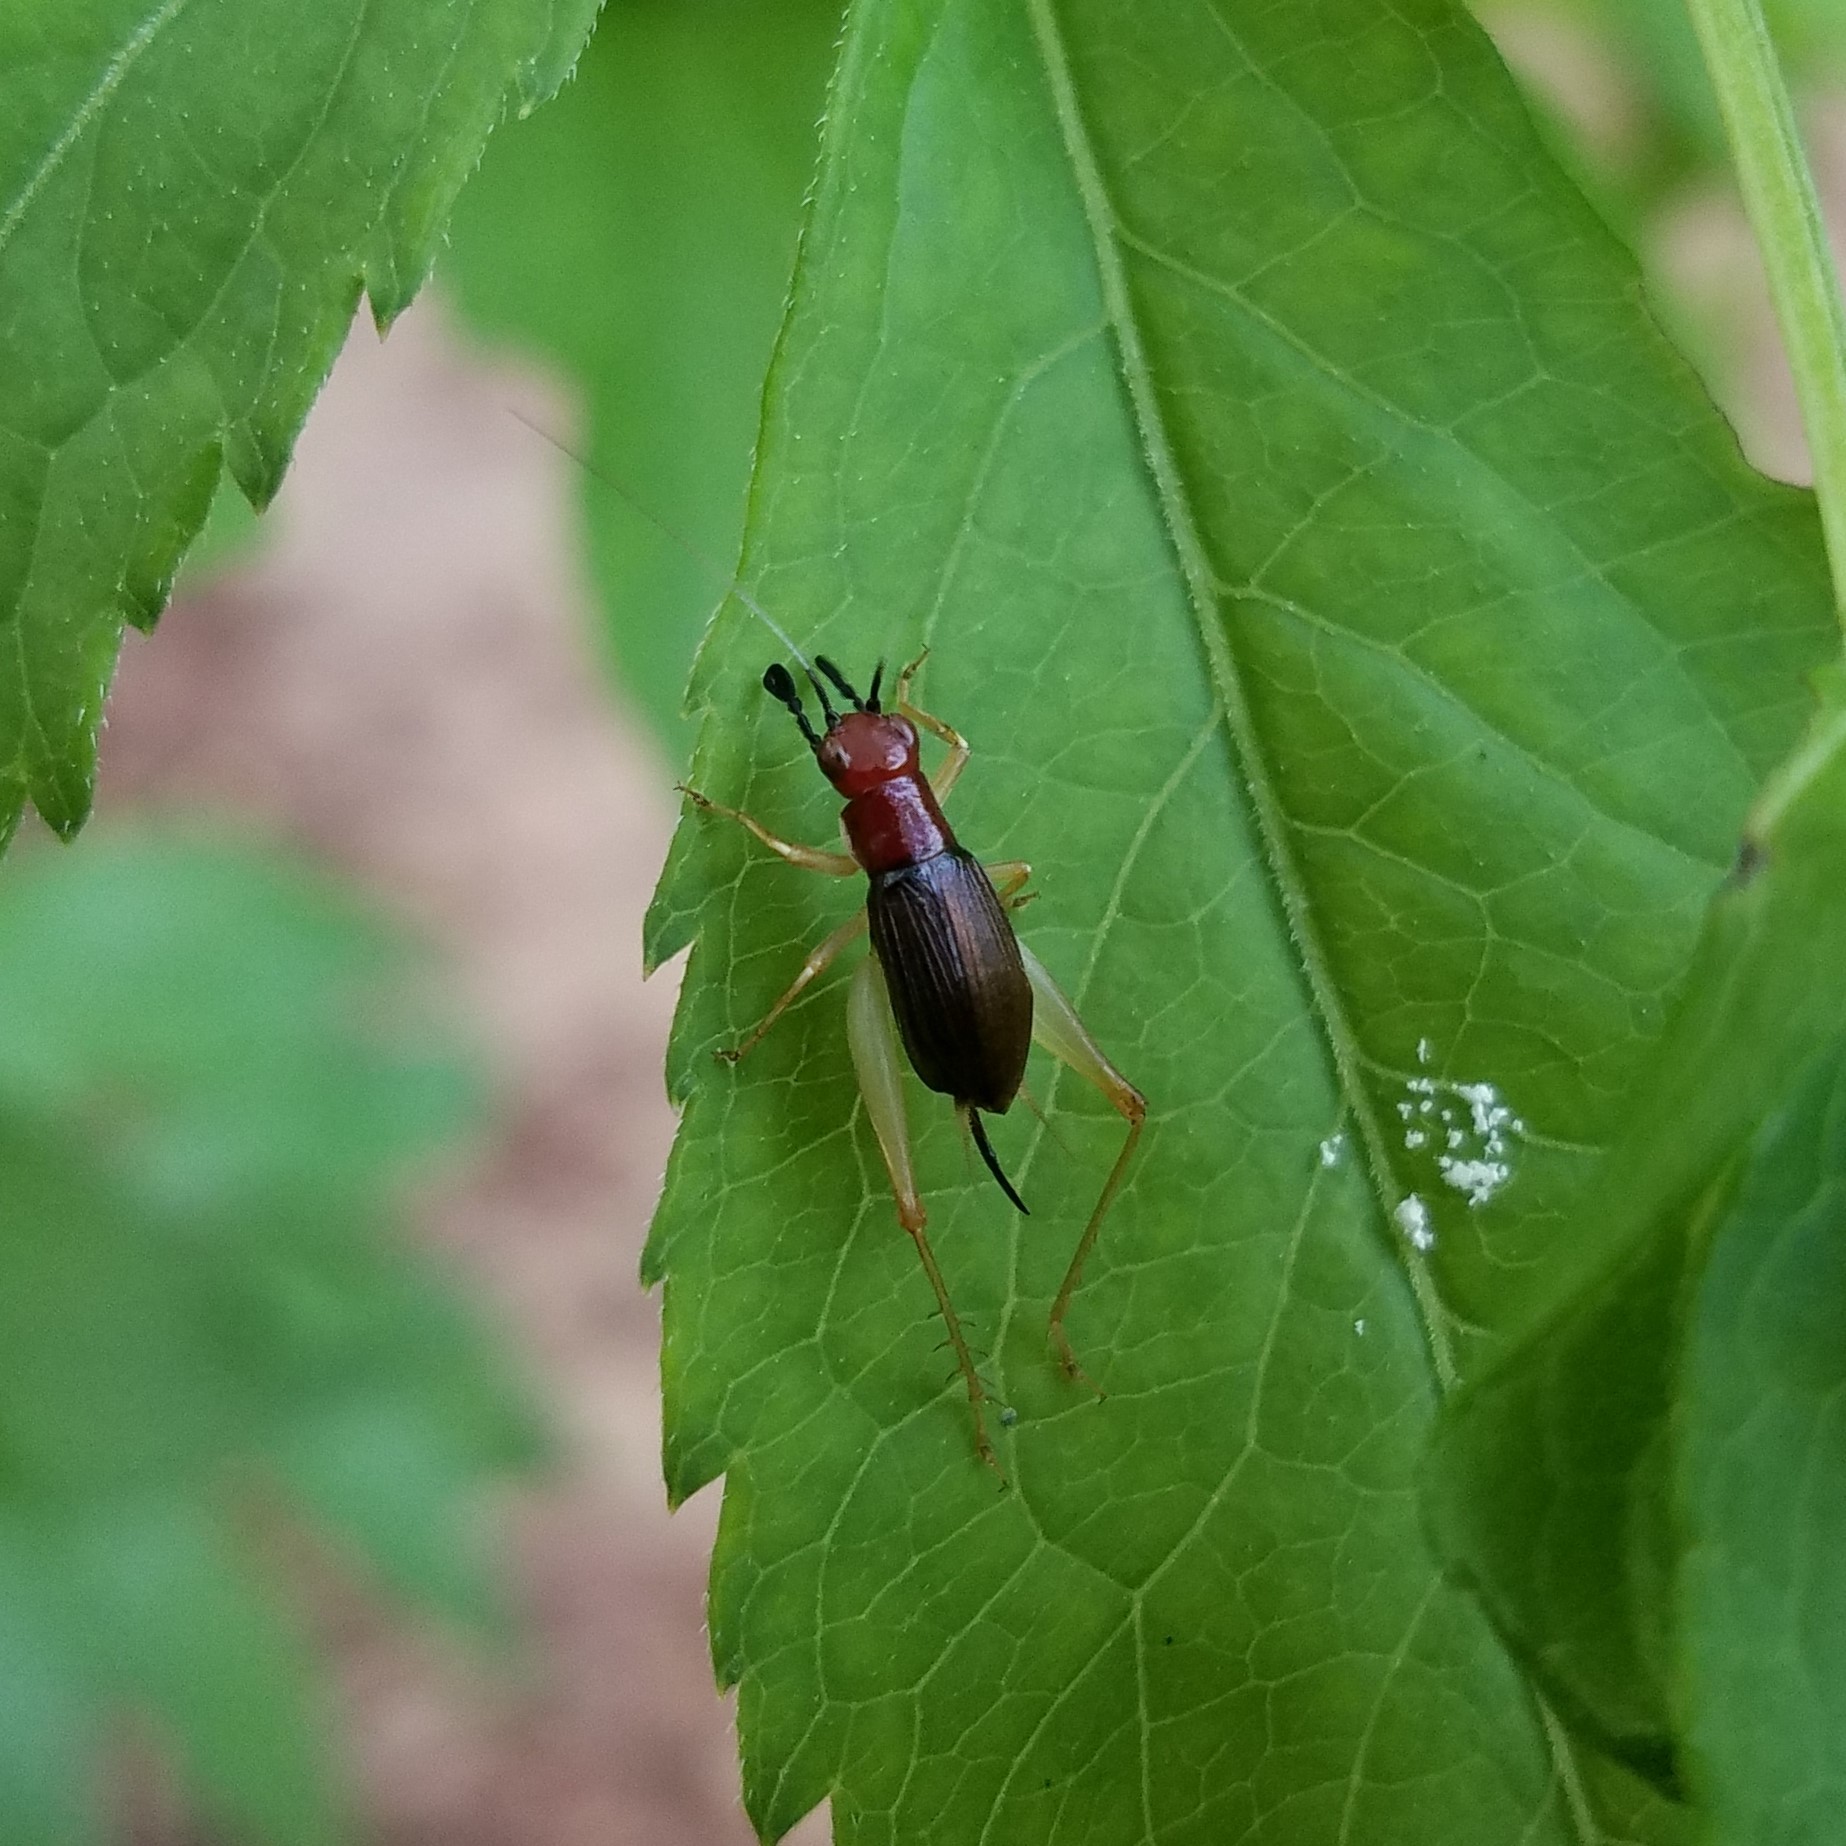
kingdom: Animalia
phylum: Arthropoda
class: Insecta
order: Orthoptera
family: Trigonidiidae
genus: Phyllopalpus
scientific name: Phyllopalpus pulchellus
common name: Handsome trig
